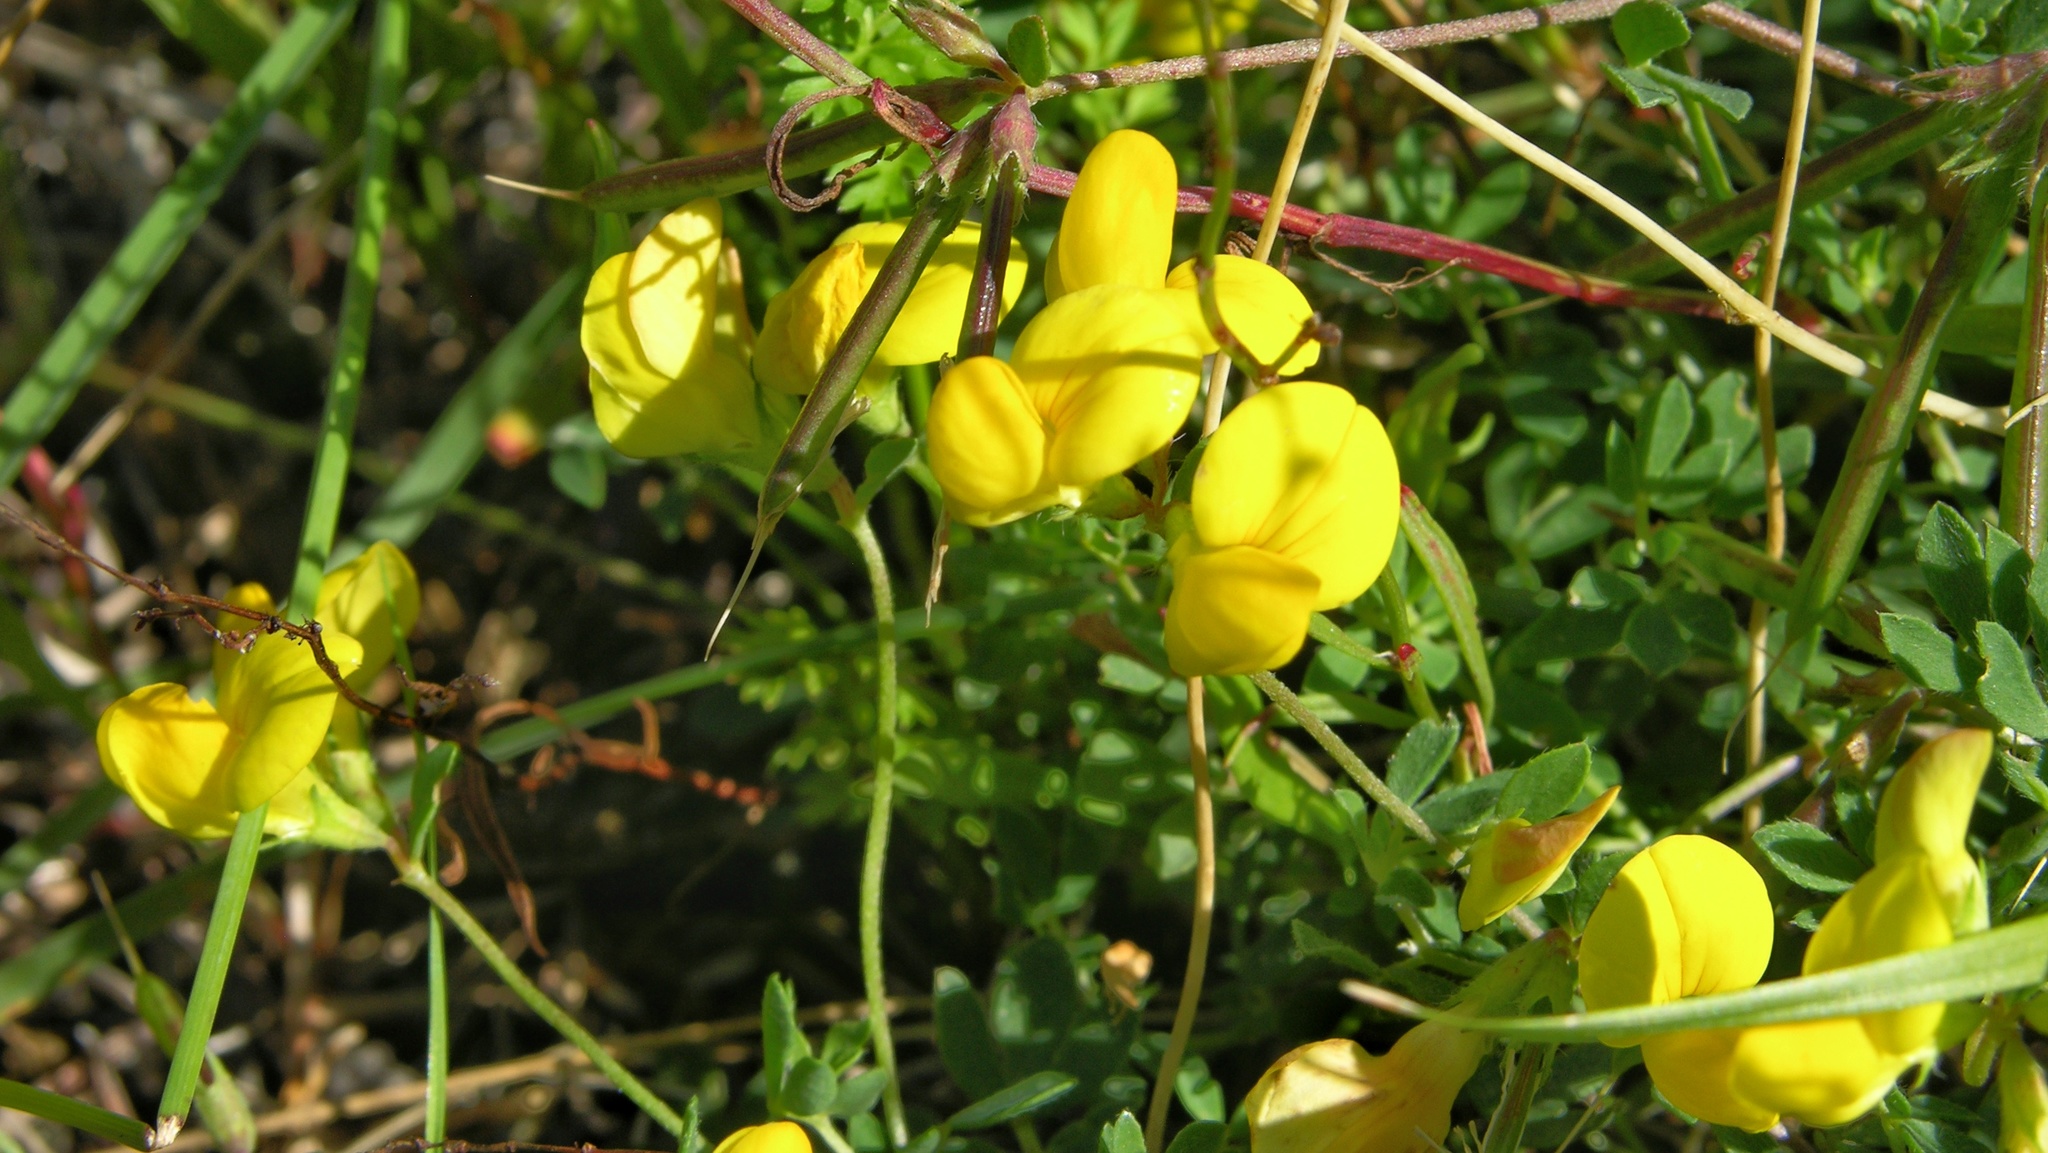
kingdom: Plantae
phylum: Tracheophyta
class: Magnoliopsida
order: Fabales
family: Fabaceae
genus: Lotus
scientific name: Lotus corniculatus
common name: Common bird's-foot-trefoil
